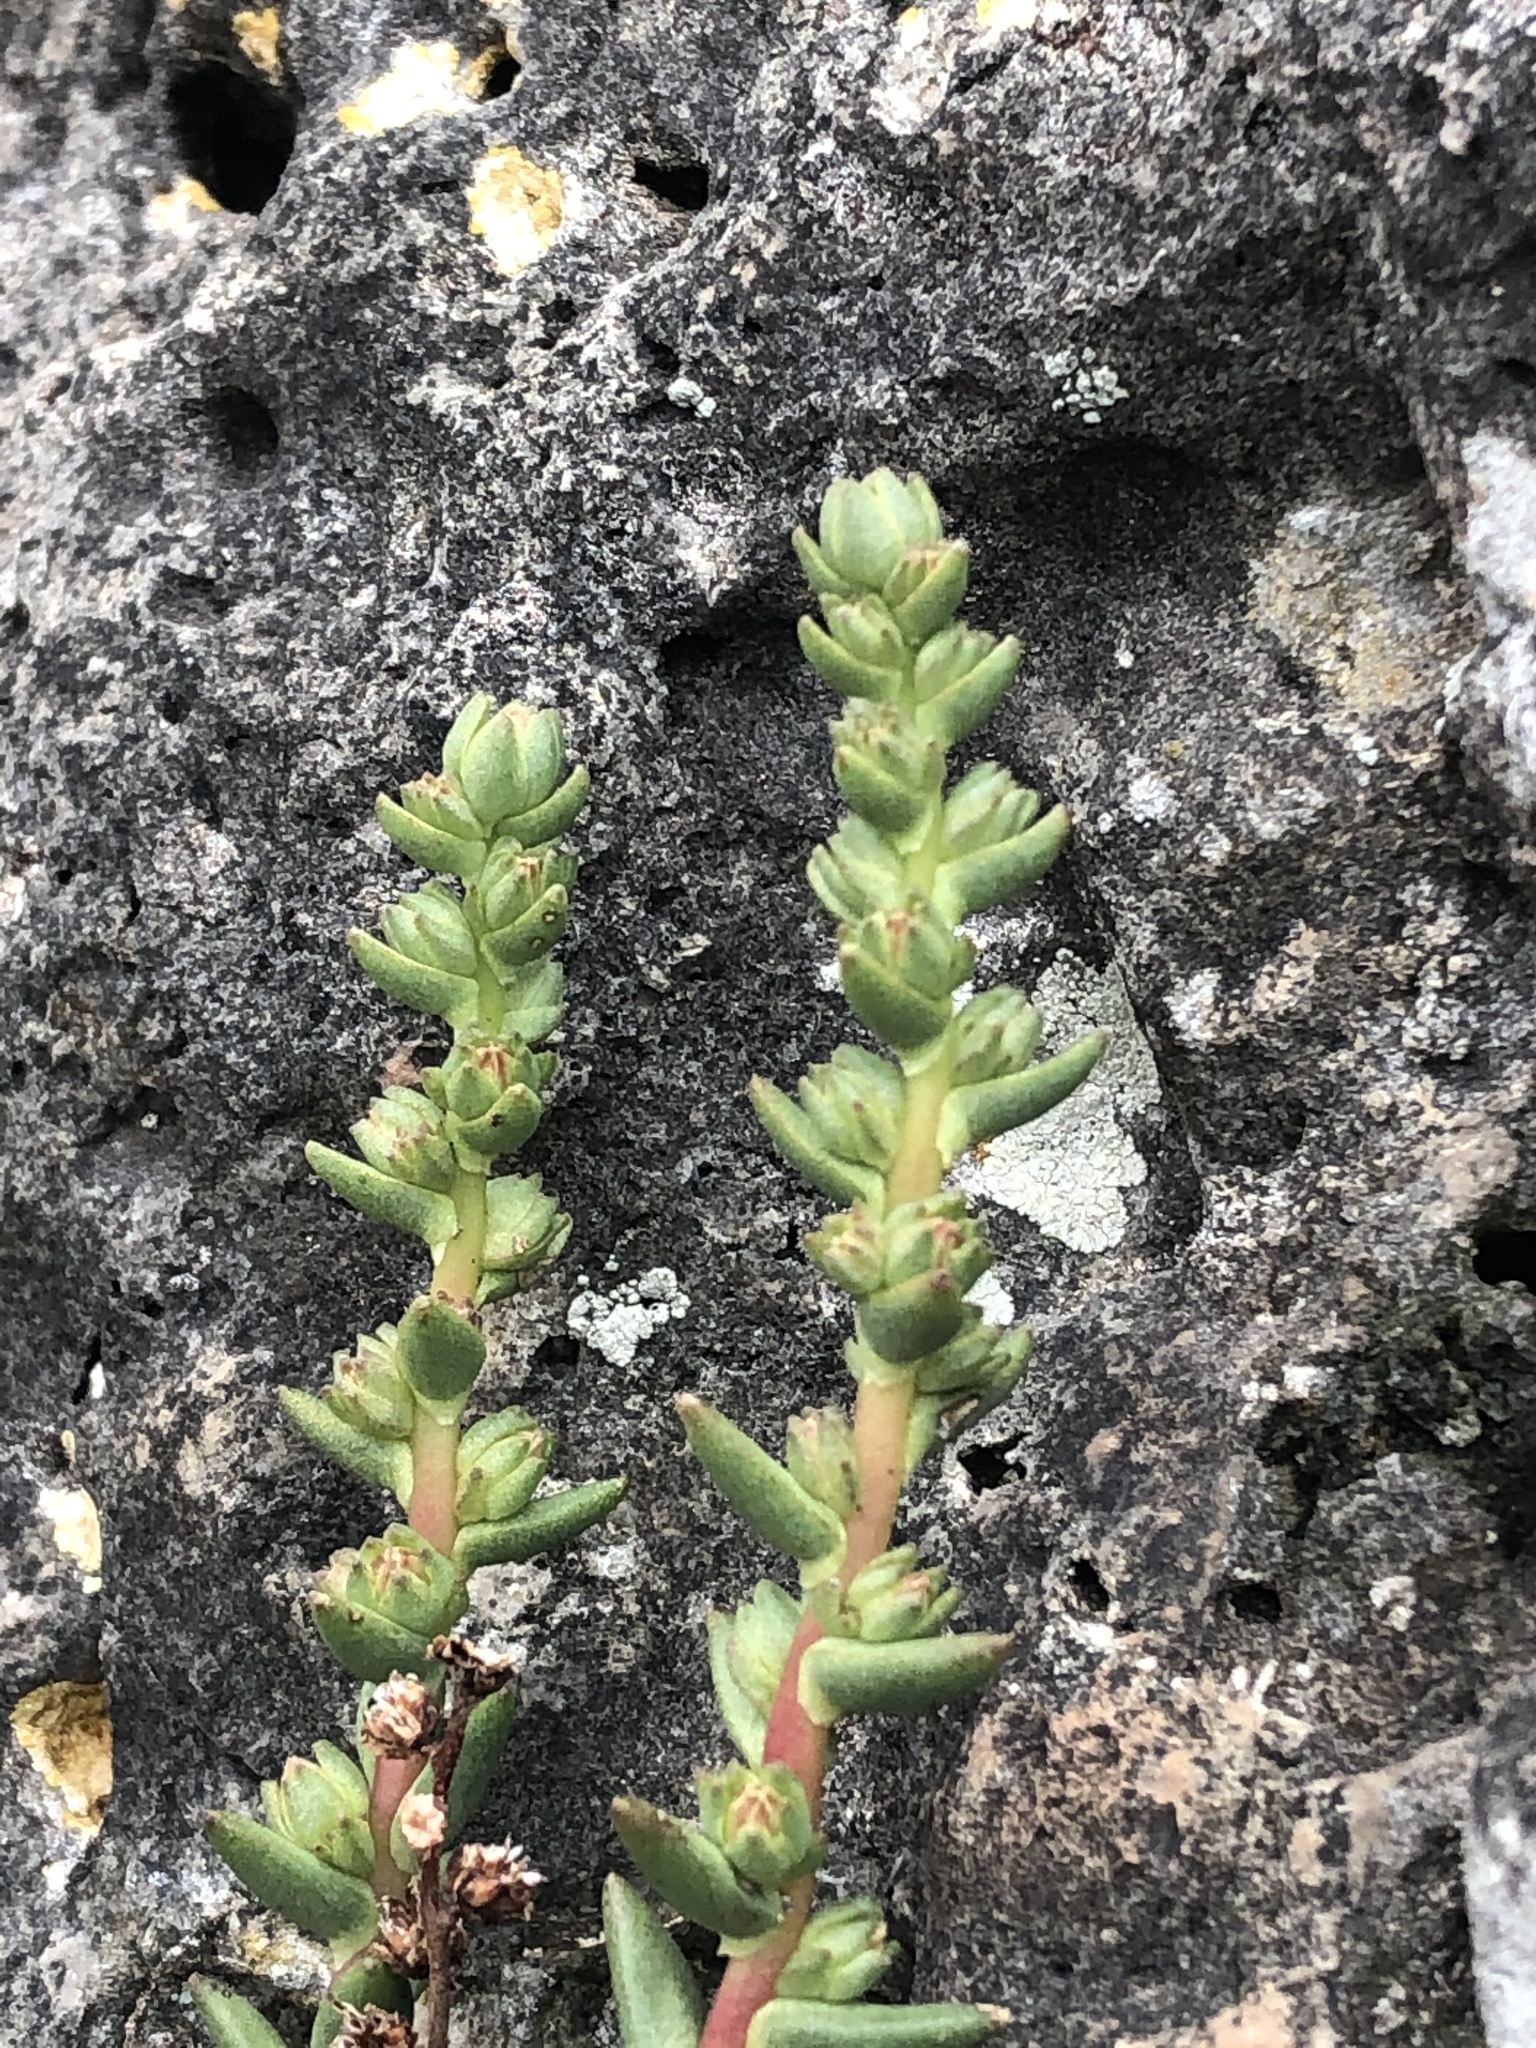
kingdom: Plantae
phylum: Tracheophyta
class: Magnoliopsida
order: Saxifragales
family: Crassulaceae
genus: Villadia
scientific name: Villadia virgata
